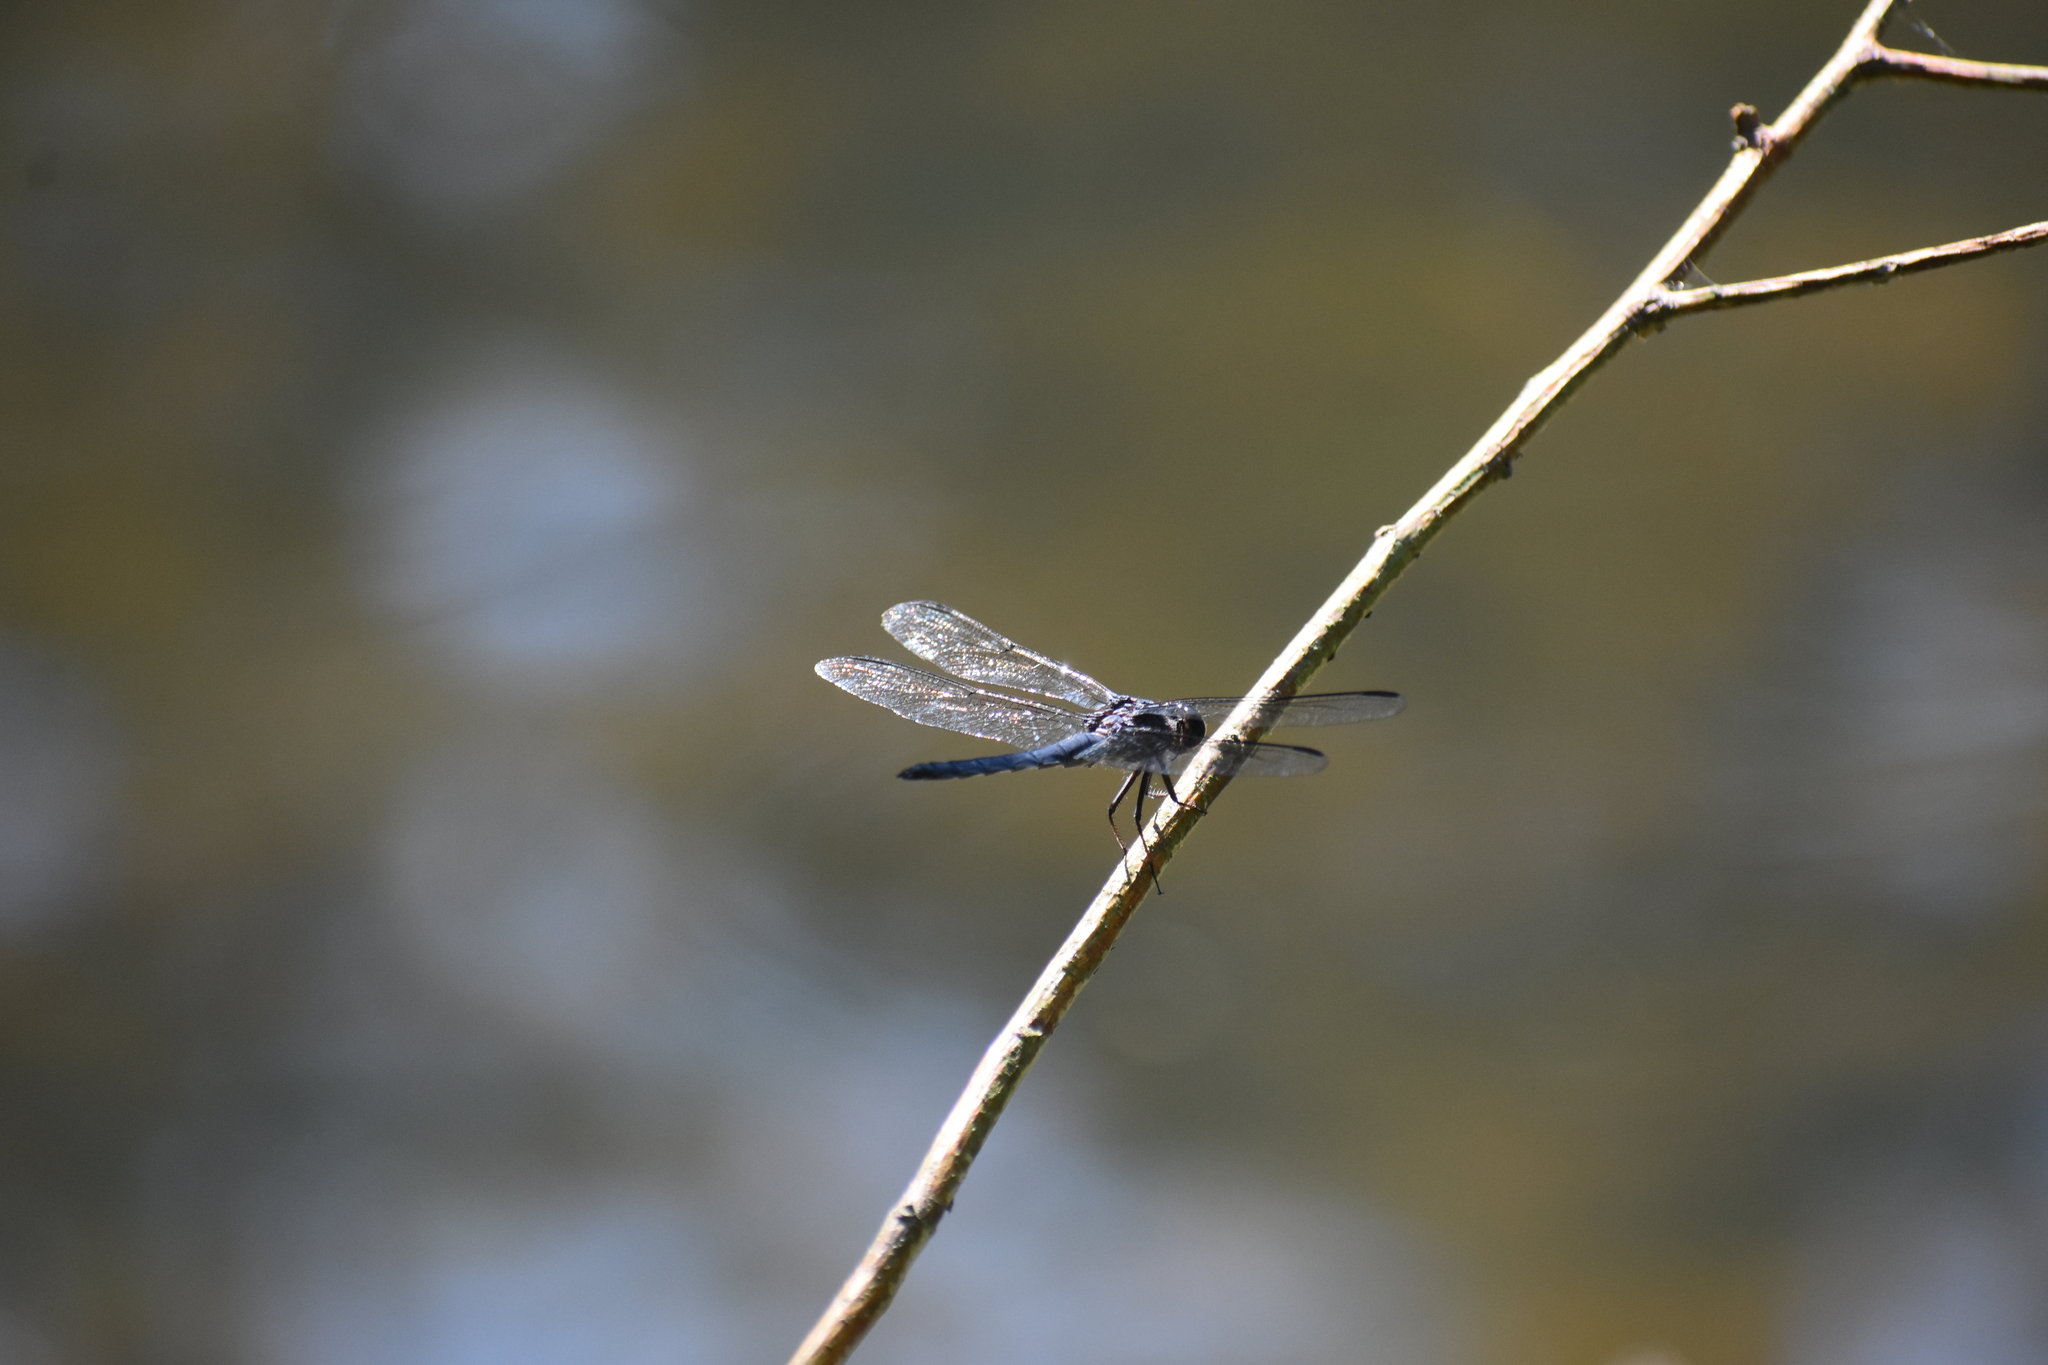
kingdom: Animalia
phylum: Arthropoda
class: Insecta
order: Odonata
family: Libellulidae
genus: Libellula
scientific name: Libellula incesta
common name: Slaty skimmer
